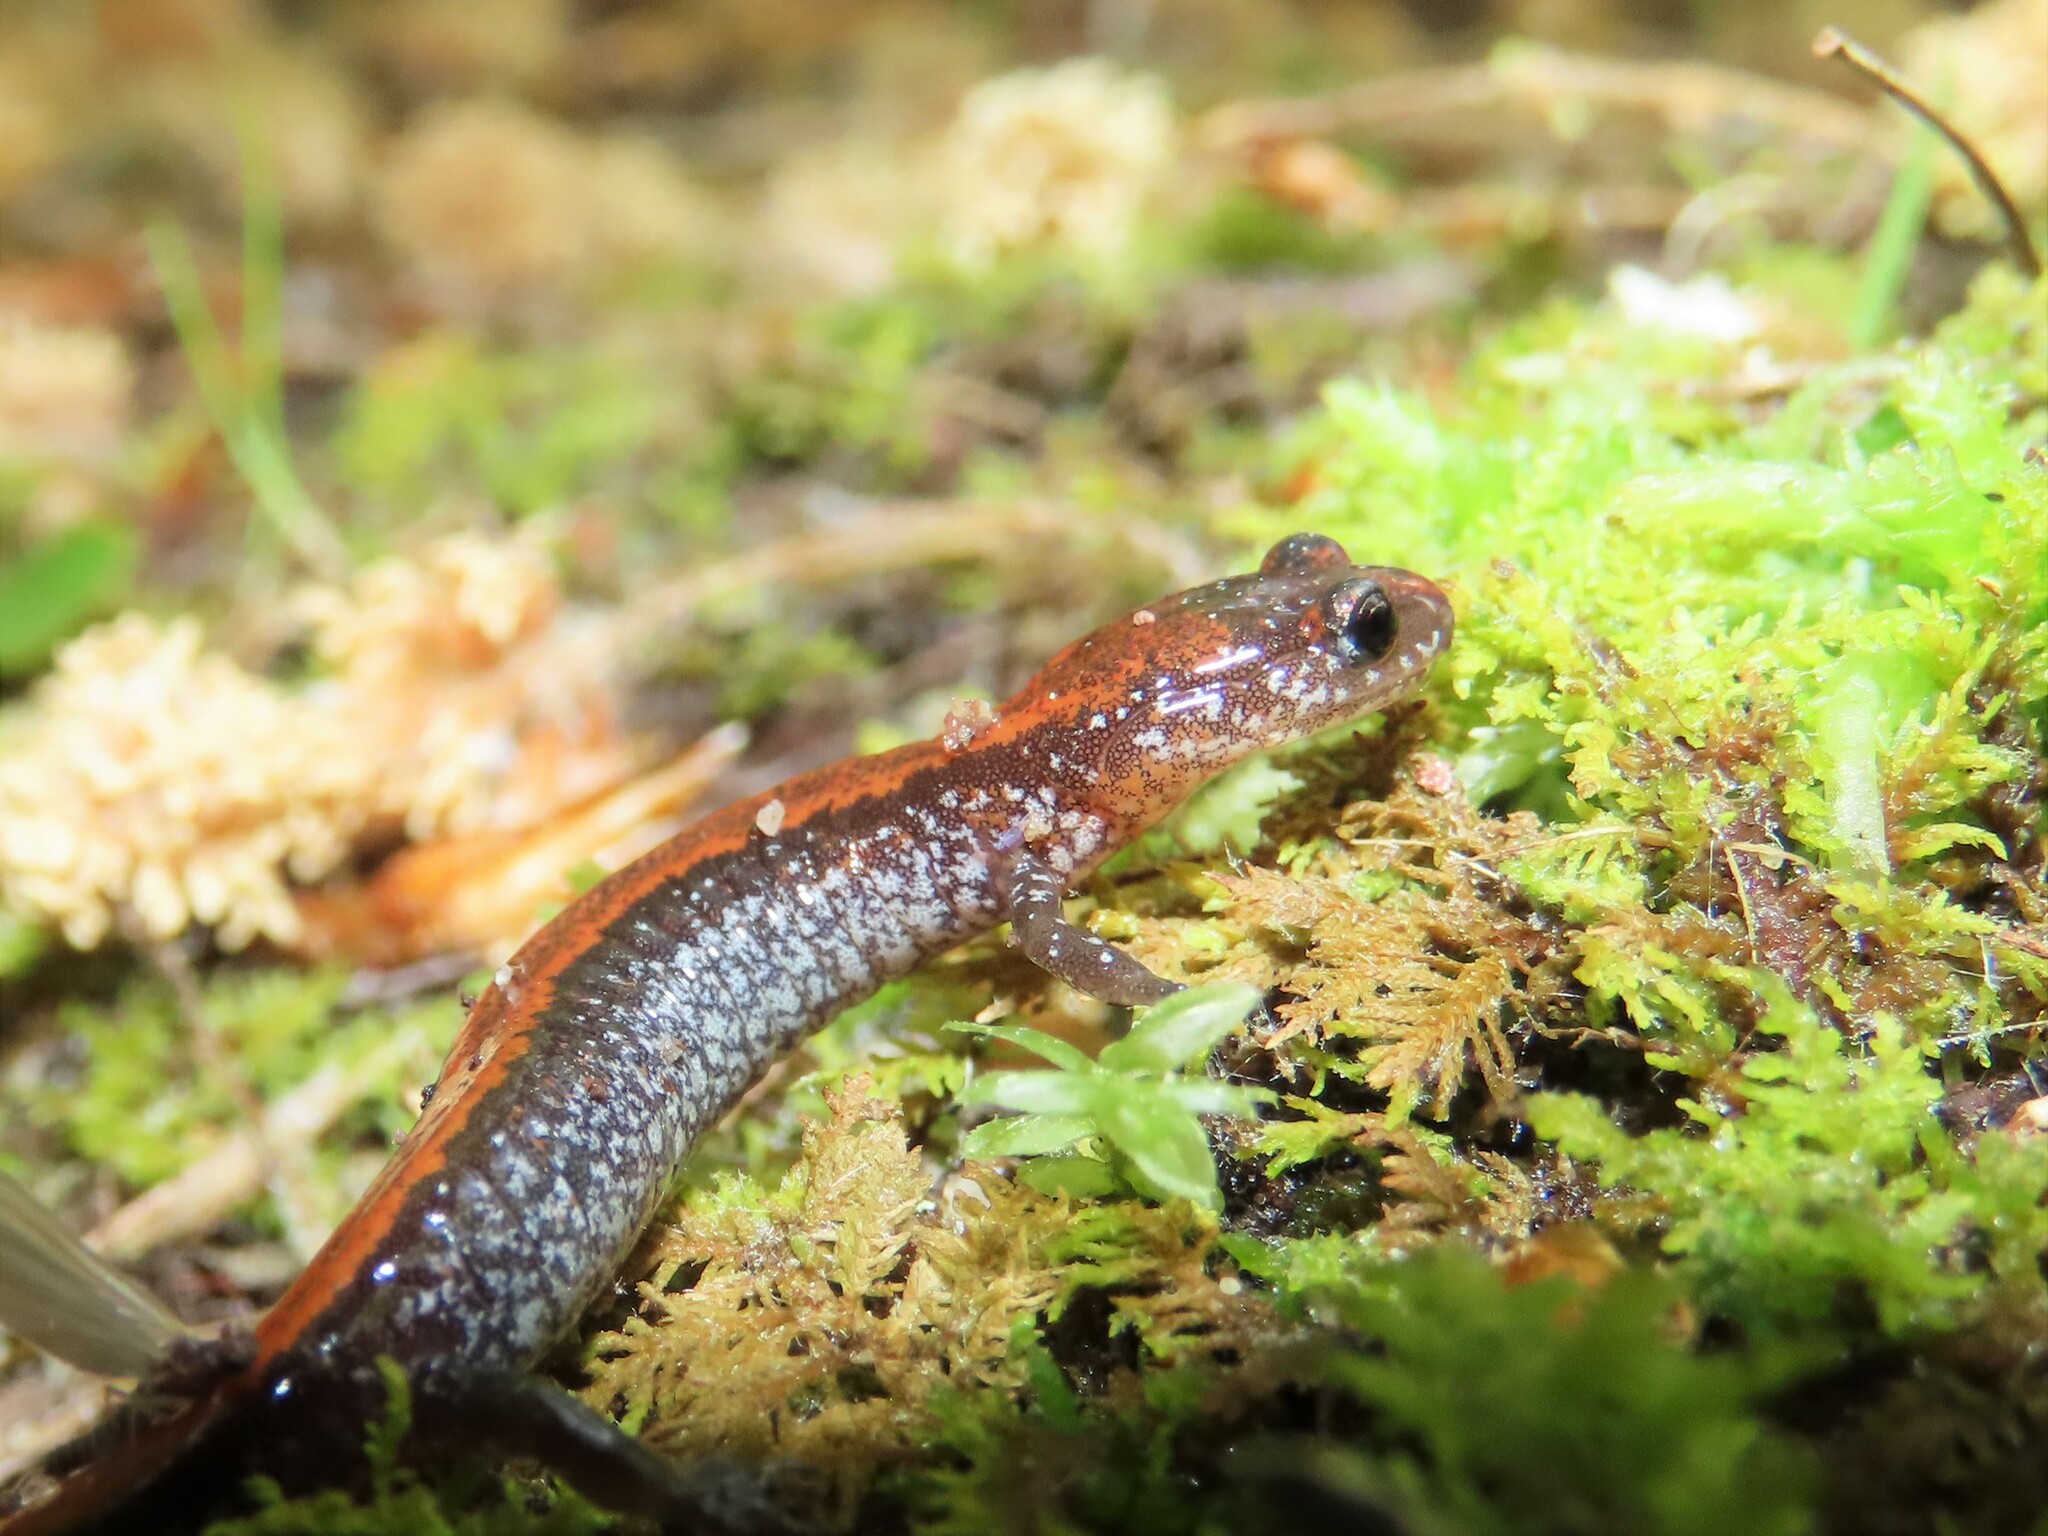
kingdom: Animalia
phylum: Chordata
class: Amphibia
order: Caudata
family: Plethodontidae
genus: Plethodon
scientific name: Plethodon cinereus
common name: Redback salamander
